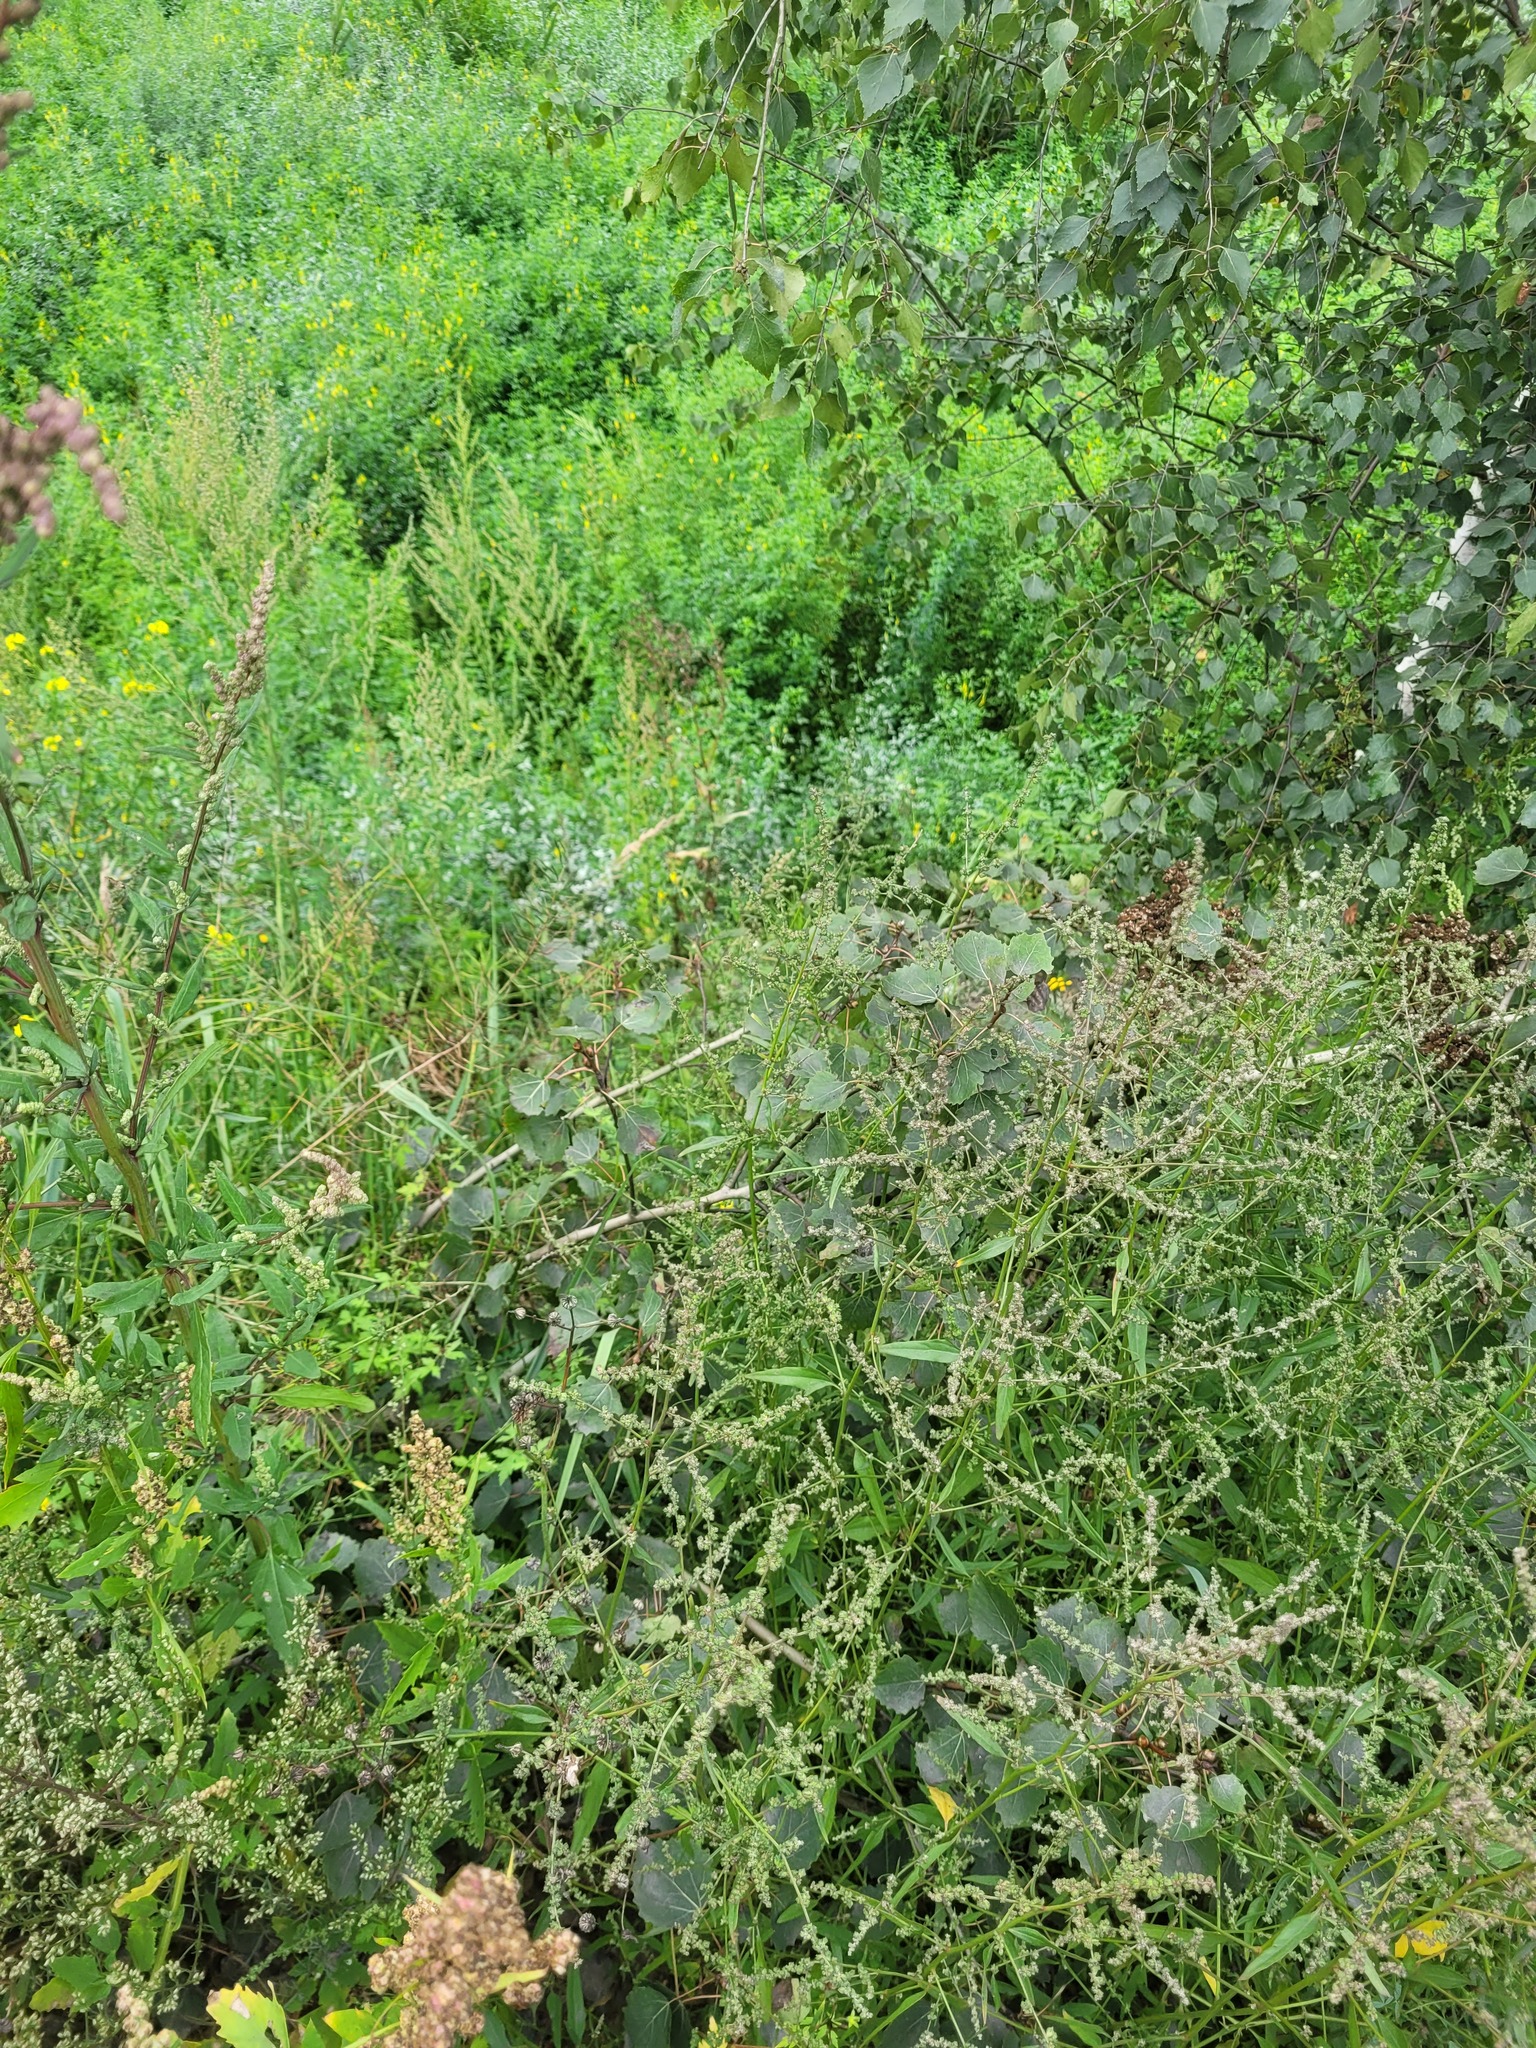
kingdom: Plantae
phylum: Tracheophyta
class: Magnoliopsida
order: Malpighiales
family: Salicaceae
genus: Populus
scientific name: Populus tremula
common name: European aspen
